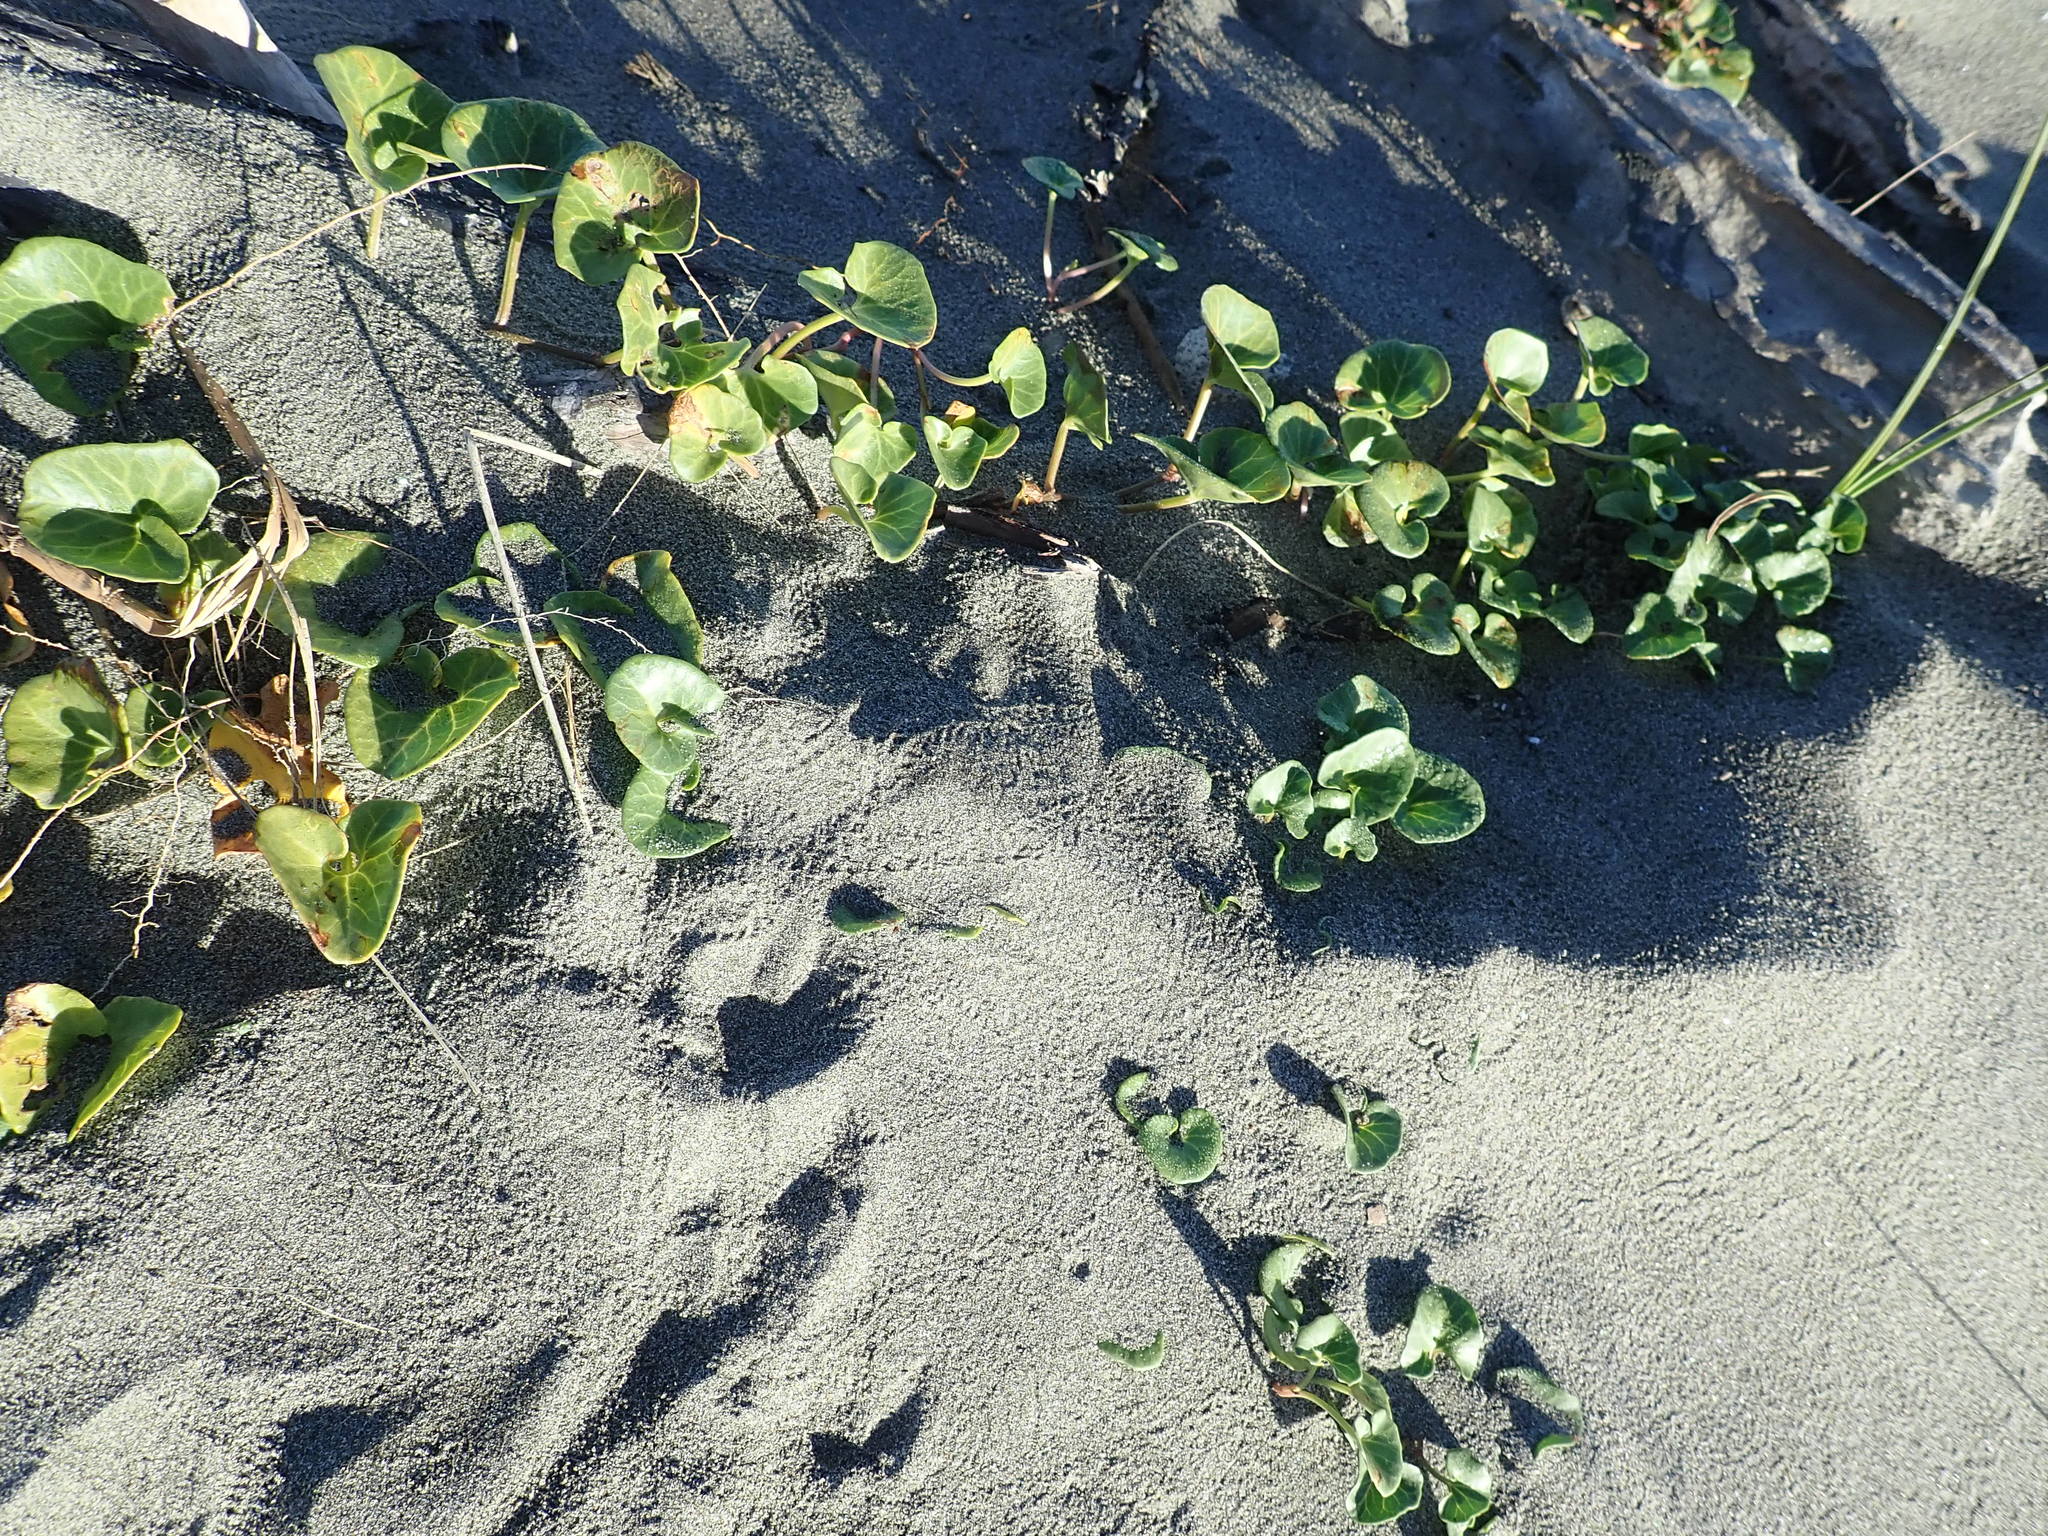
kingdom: Plantae
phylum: Tracheophyta
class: Magnoliopsida
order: Solanales
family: Convolvulaceae
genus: Calystegia
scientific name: Calystegia soldanella
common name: Sea bindweed
